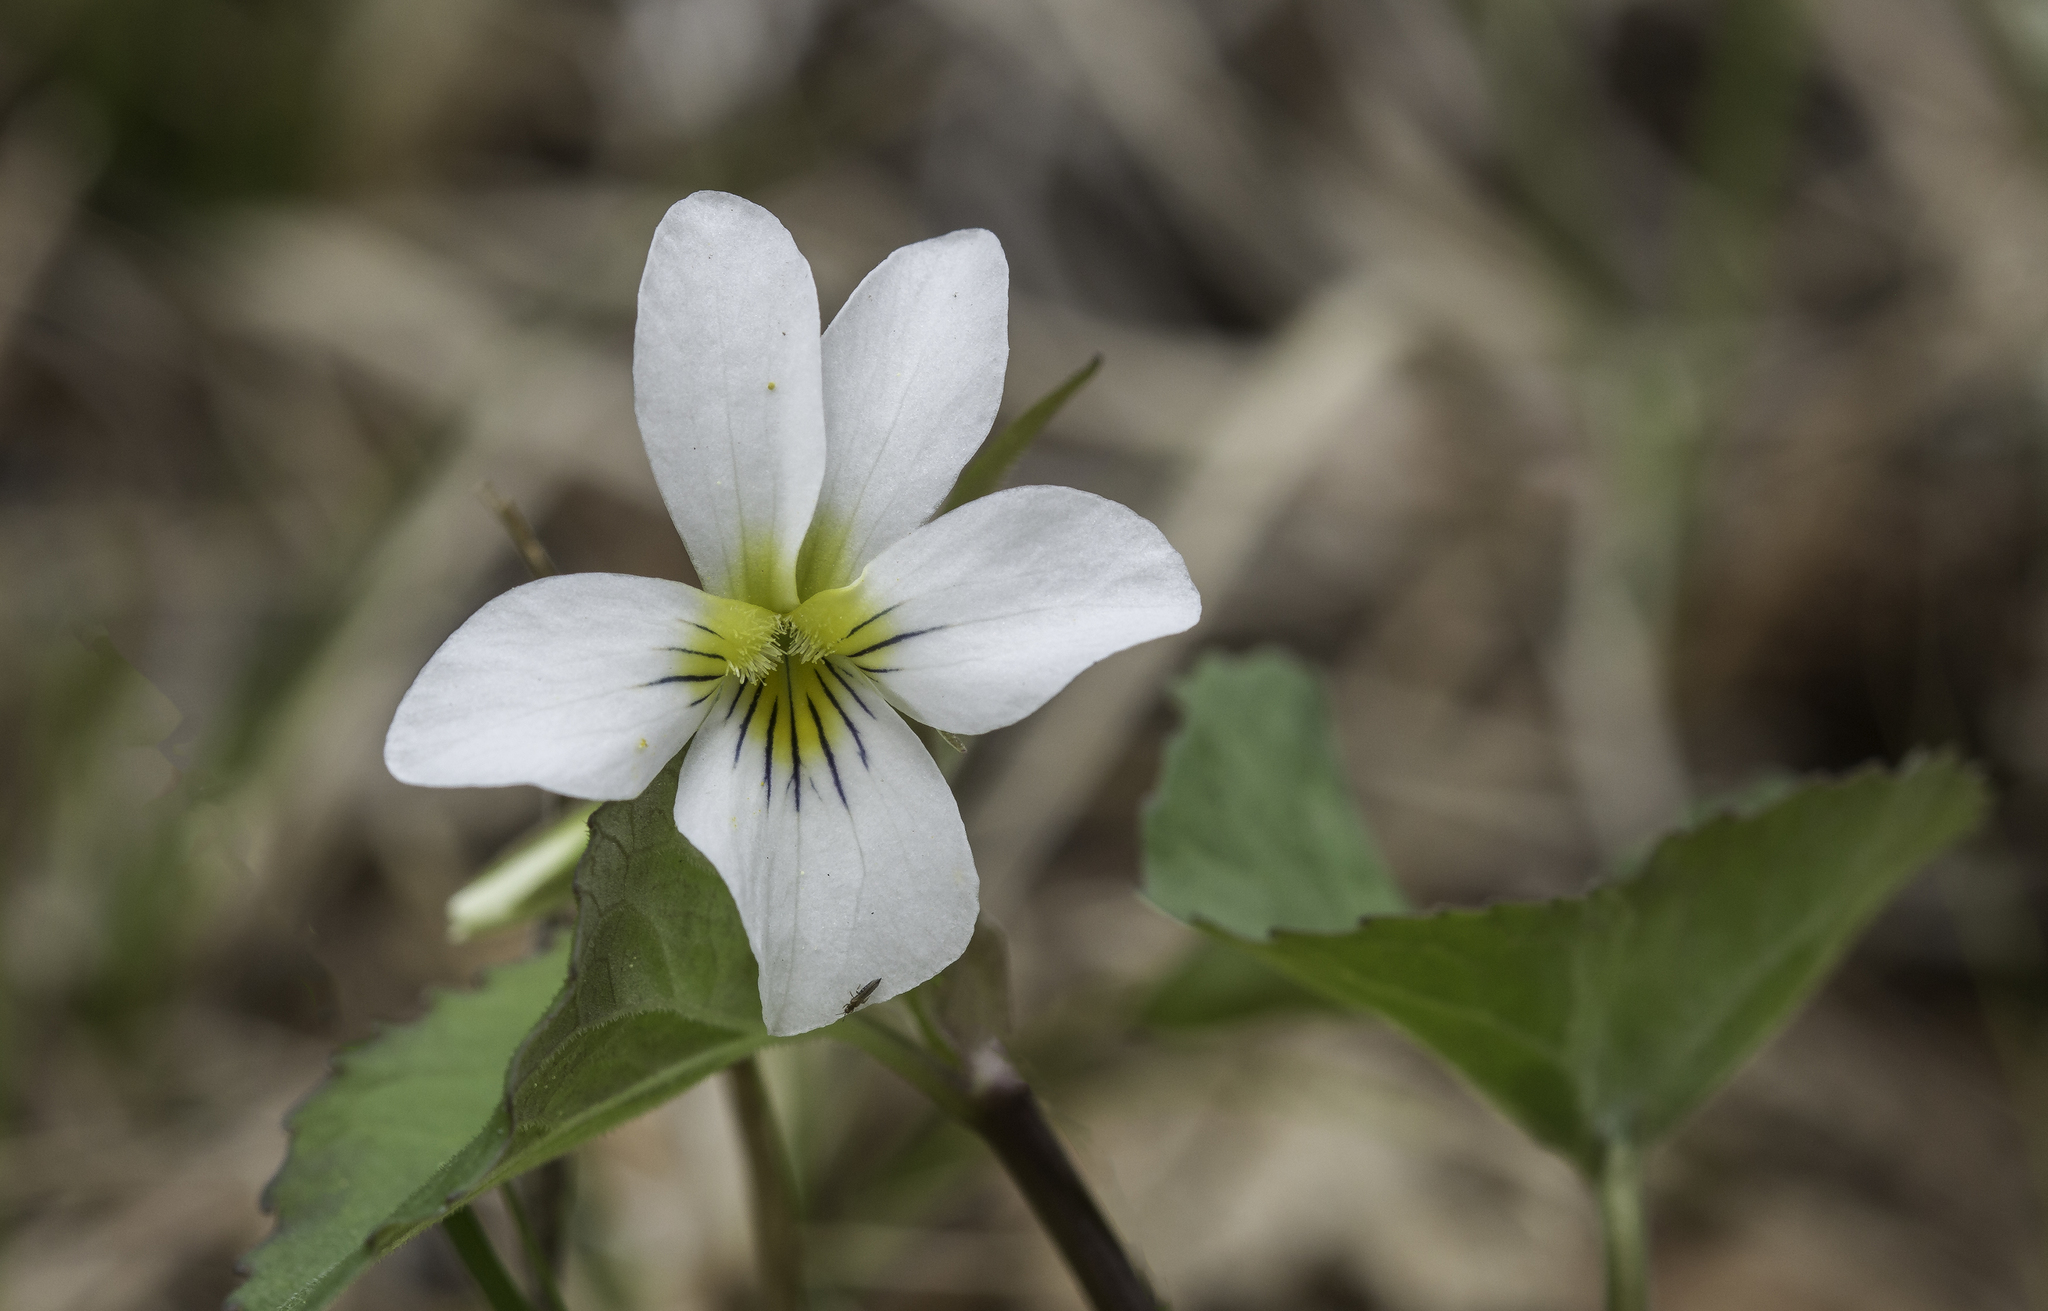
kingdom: Plantae
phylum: Tracheophyta
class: Magnoliopsida
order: Malpighiales
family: Violaceae
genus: Viola
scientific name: Viola canadensis
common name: Canada violet
